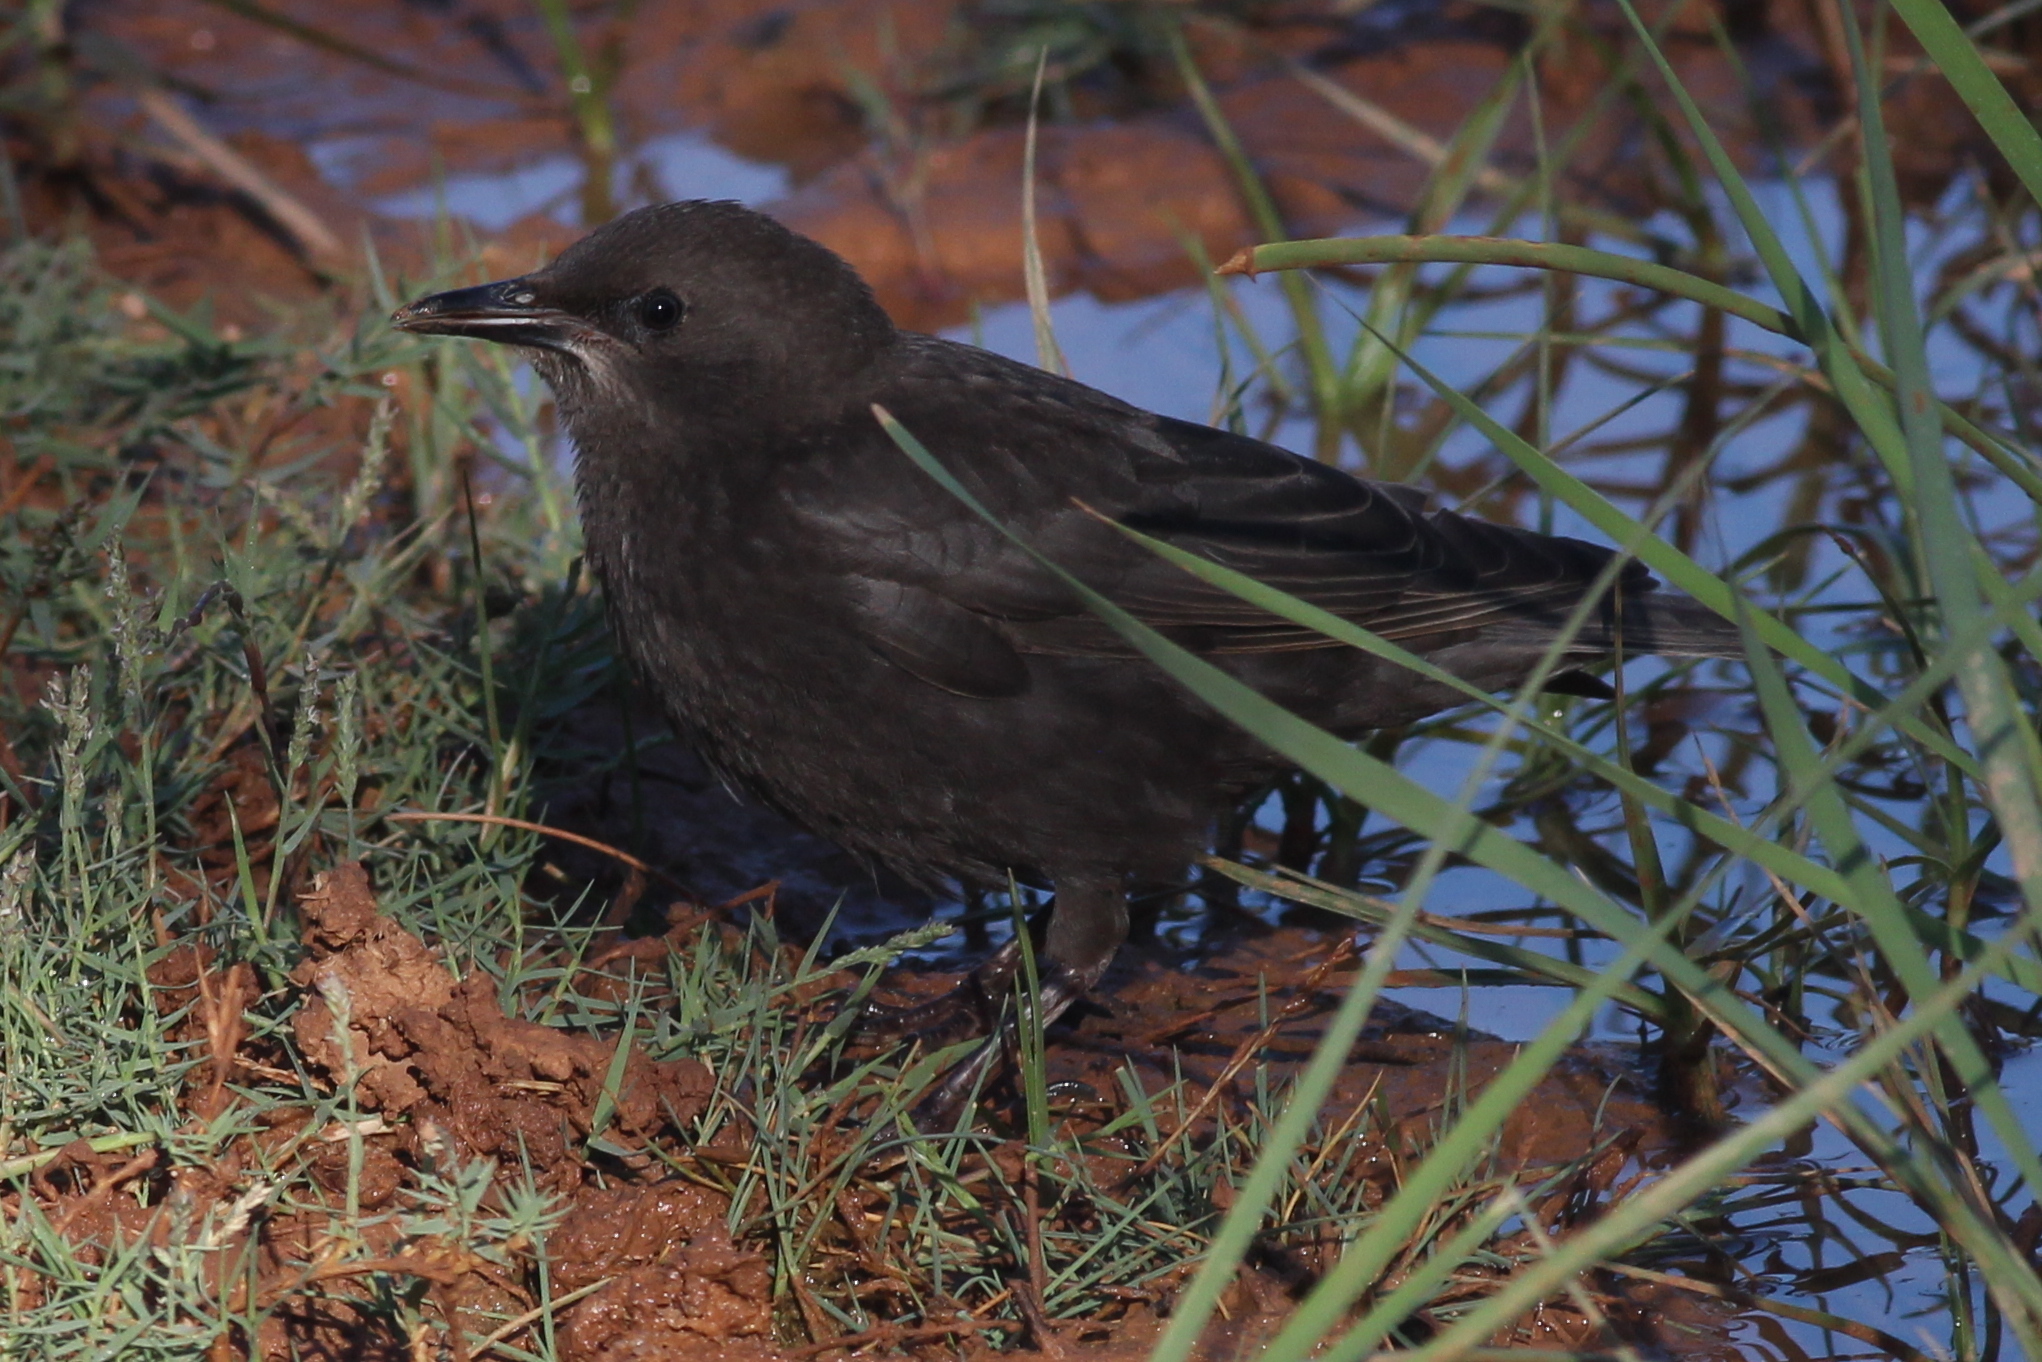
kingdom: Animalia
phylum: Chordata
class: Aves
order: Passeriformes
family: Sturnidae
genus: Sturnus
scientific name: Sturnus unicolor
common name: Spotless starling
